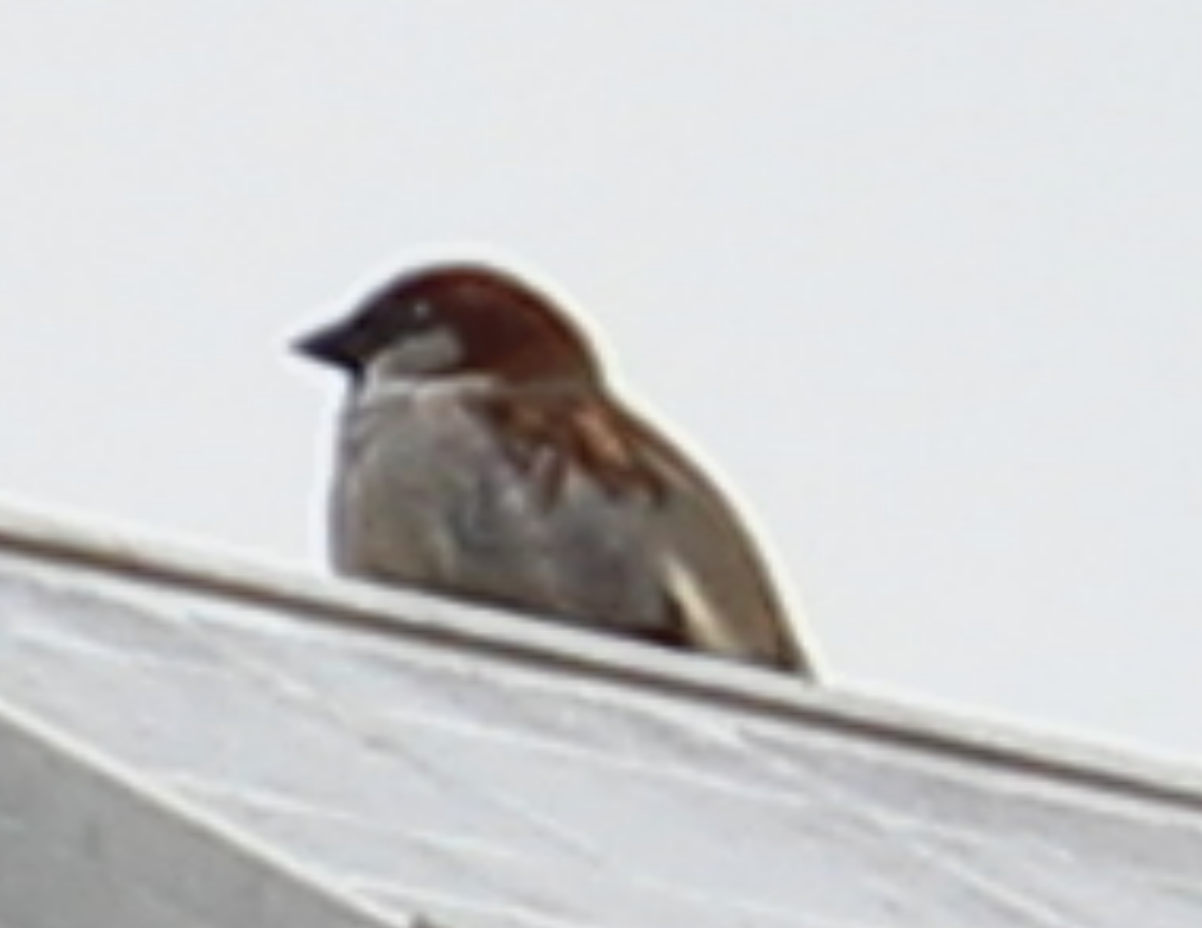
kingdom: Animalia
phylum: Chordata
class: Aves
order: Passeriformes
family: Passeridae
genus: Passer
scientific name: Passer domesticus
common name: House sparrow
